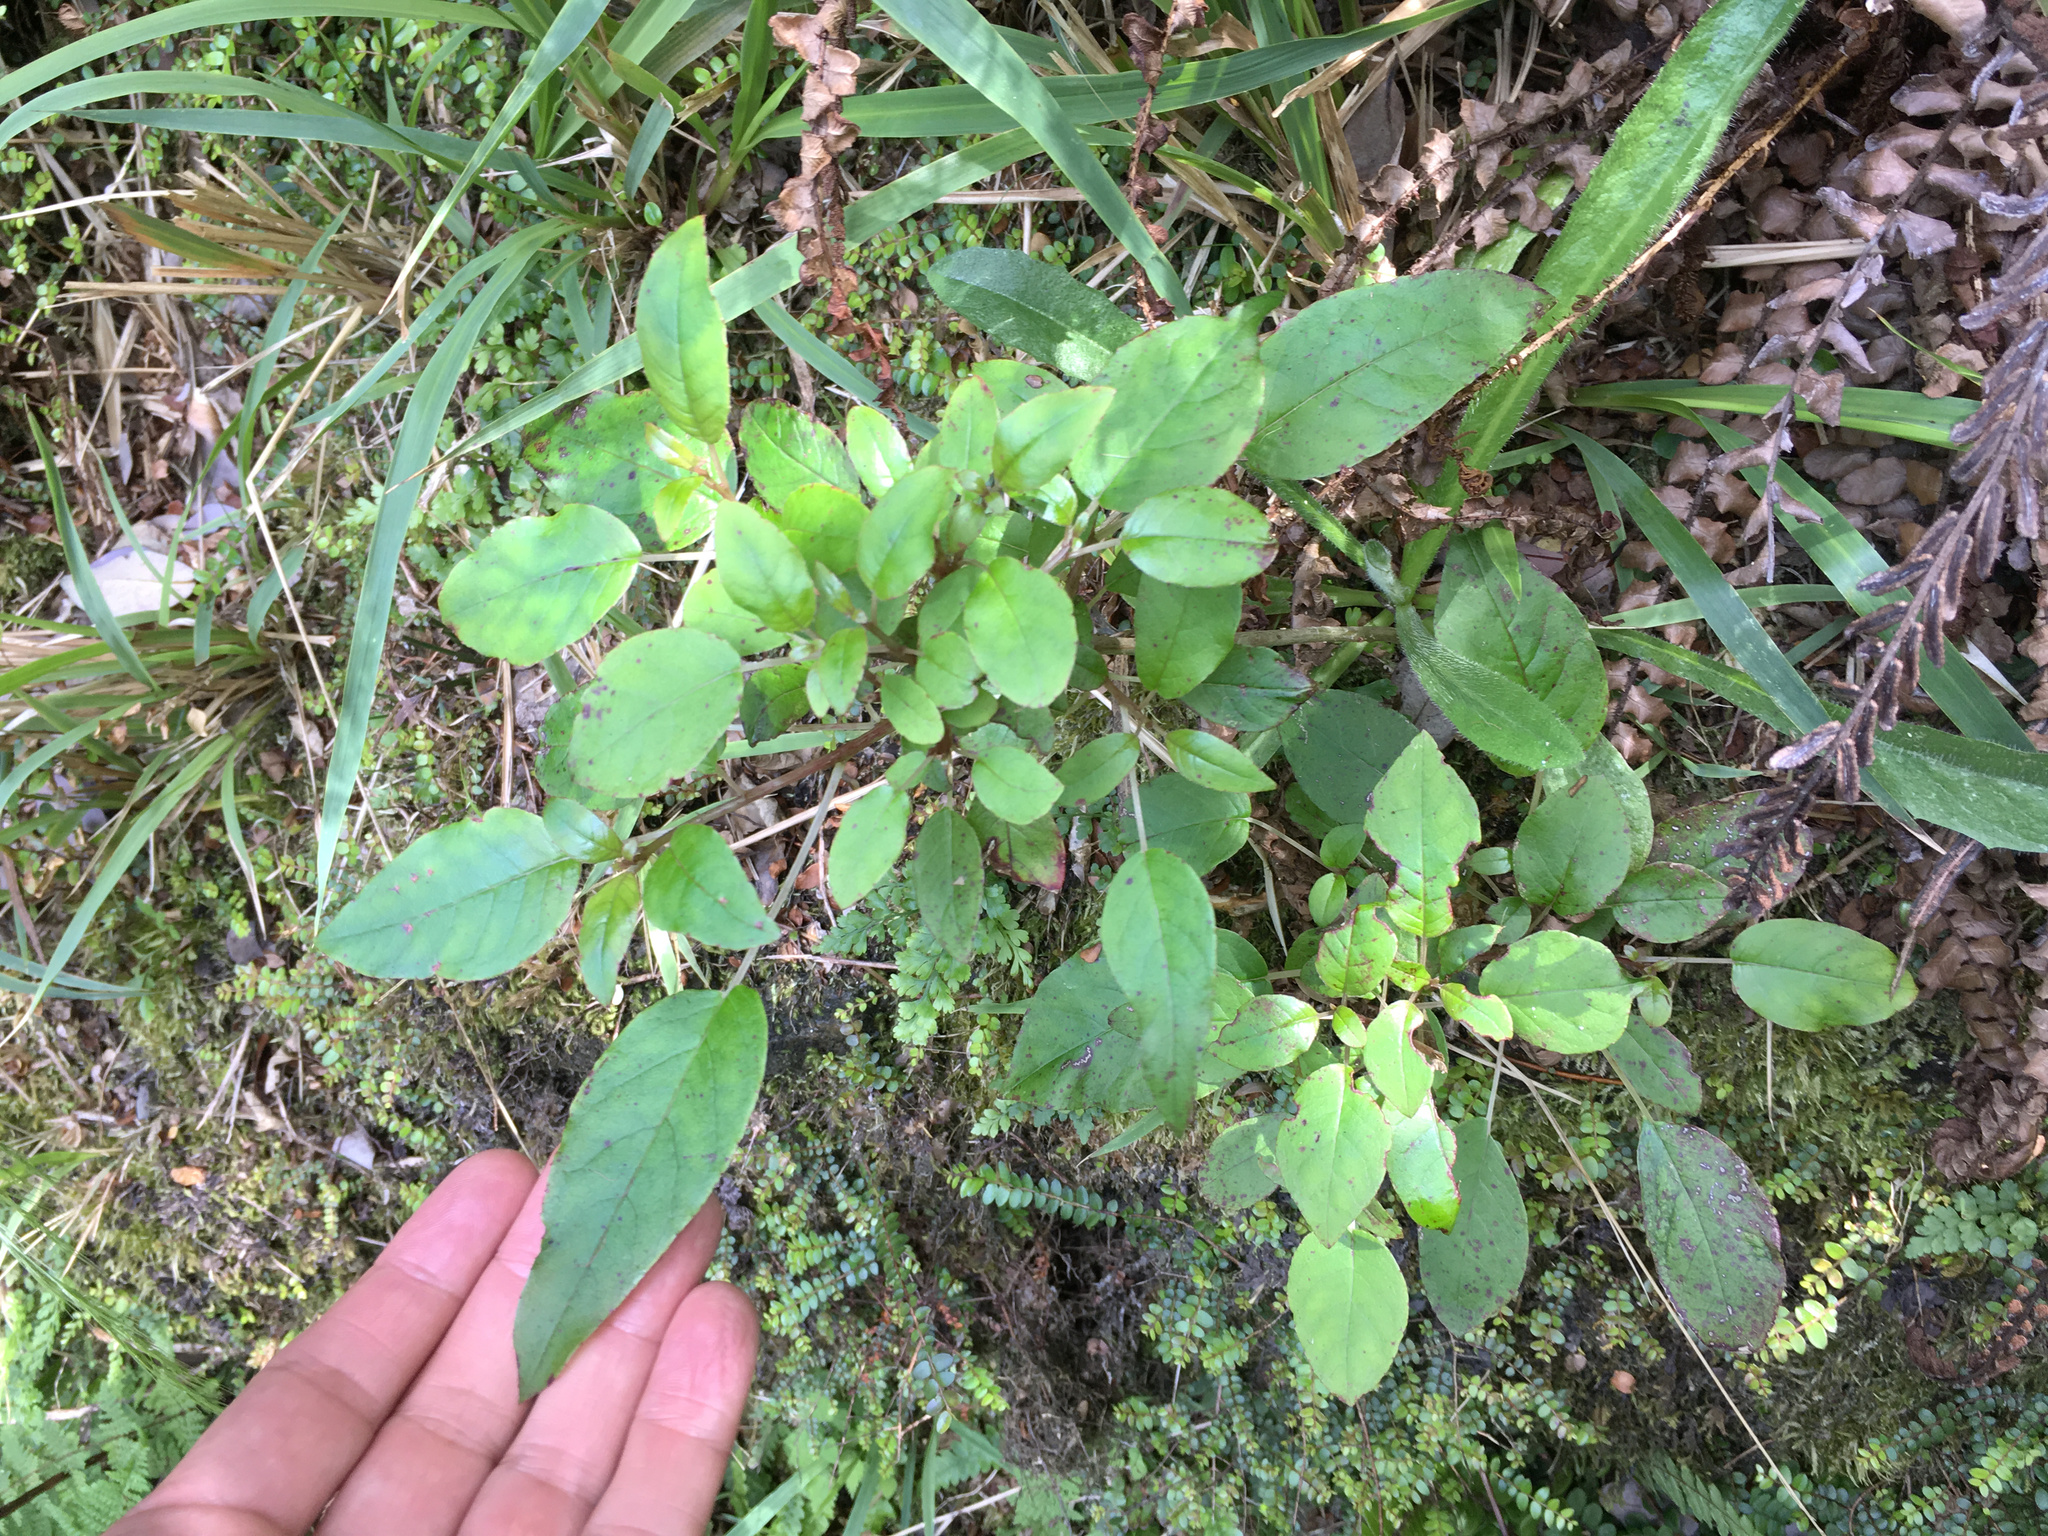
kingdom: Plantae
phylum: Tracheophyta
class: Magnoliopsida
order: Myrtales
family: Onagraceae
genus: Fuchsia
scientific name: Fuchsia excorticata
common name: Tree fuchsia
